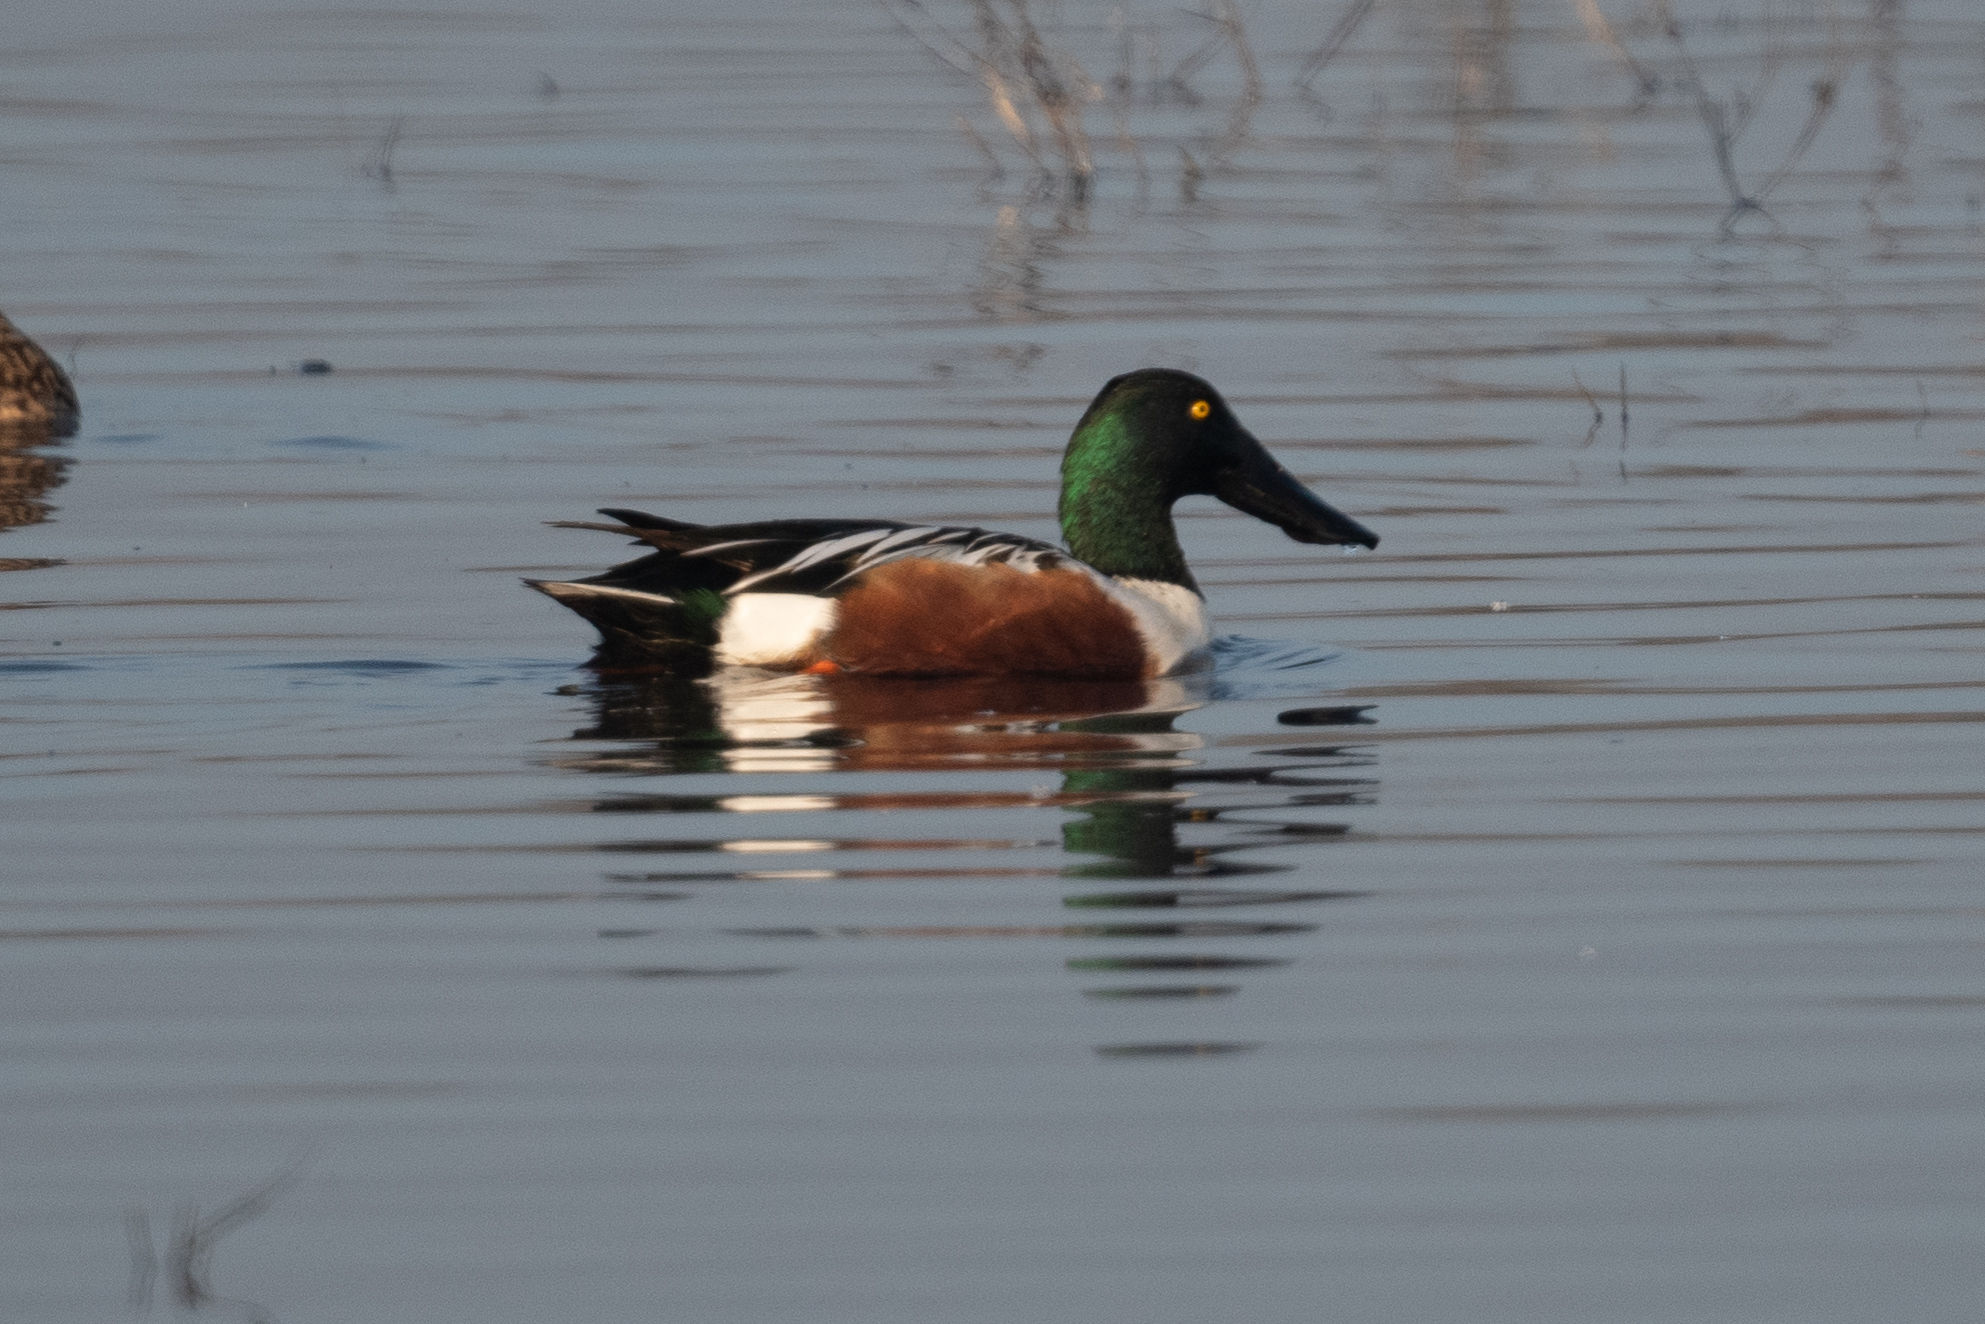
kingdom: Animalia
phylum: Chordata
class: Aves
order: Anseriformes
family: Anatidae
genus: Spatula
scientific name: Spatula clypeata
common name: Northern shoveler
